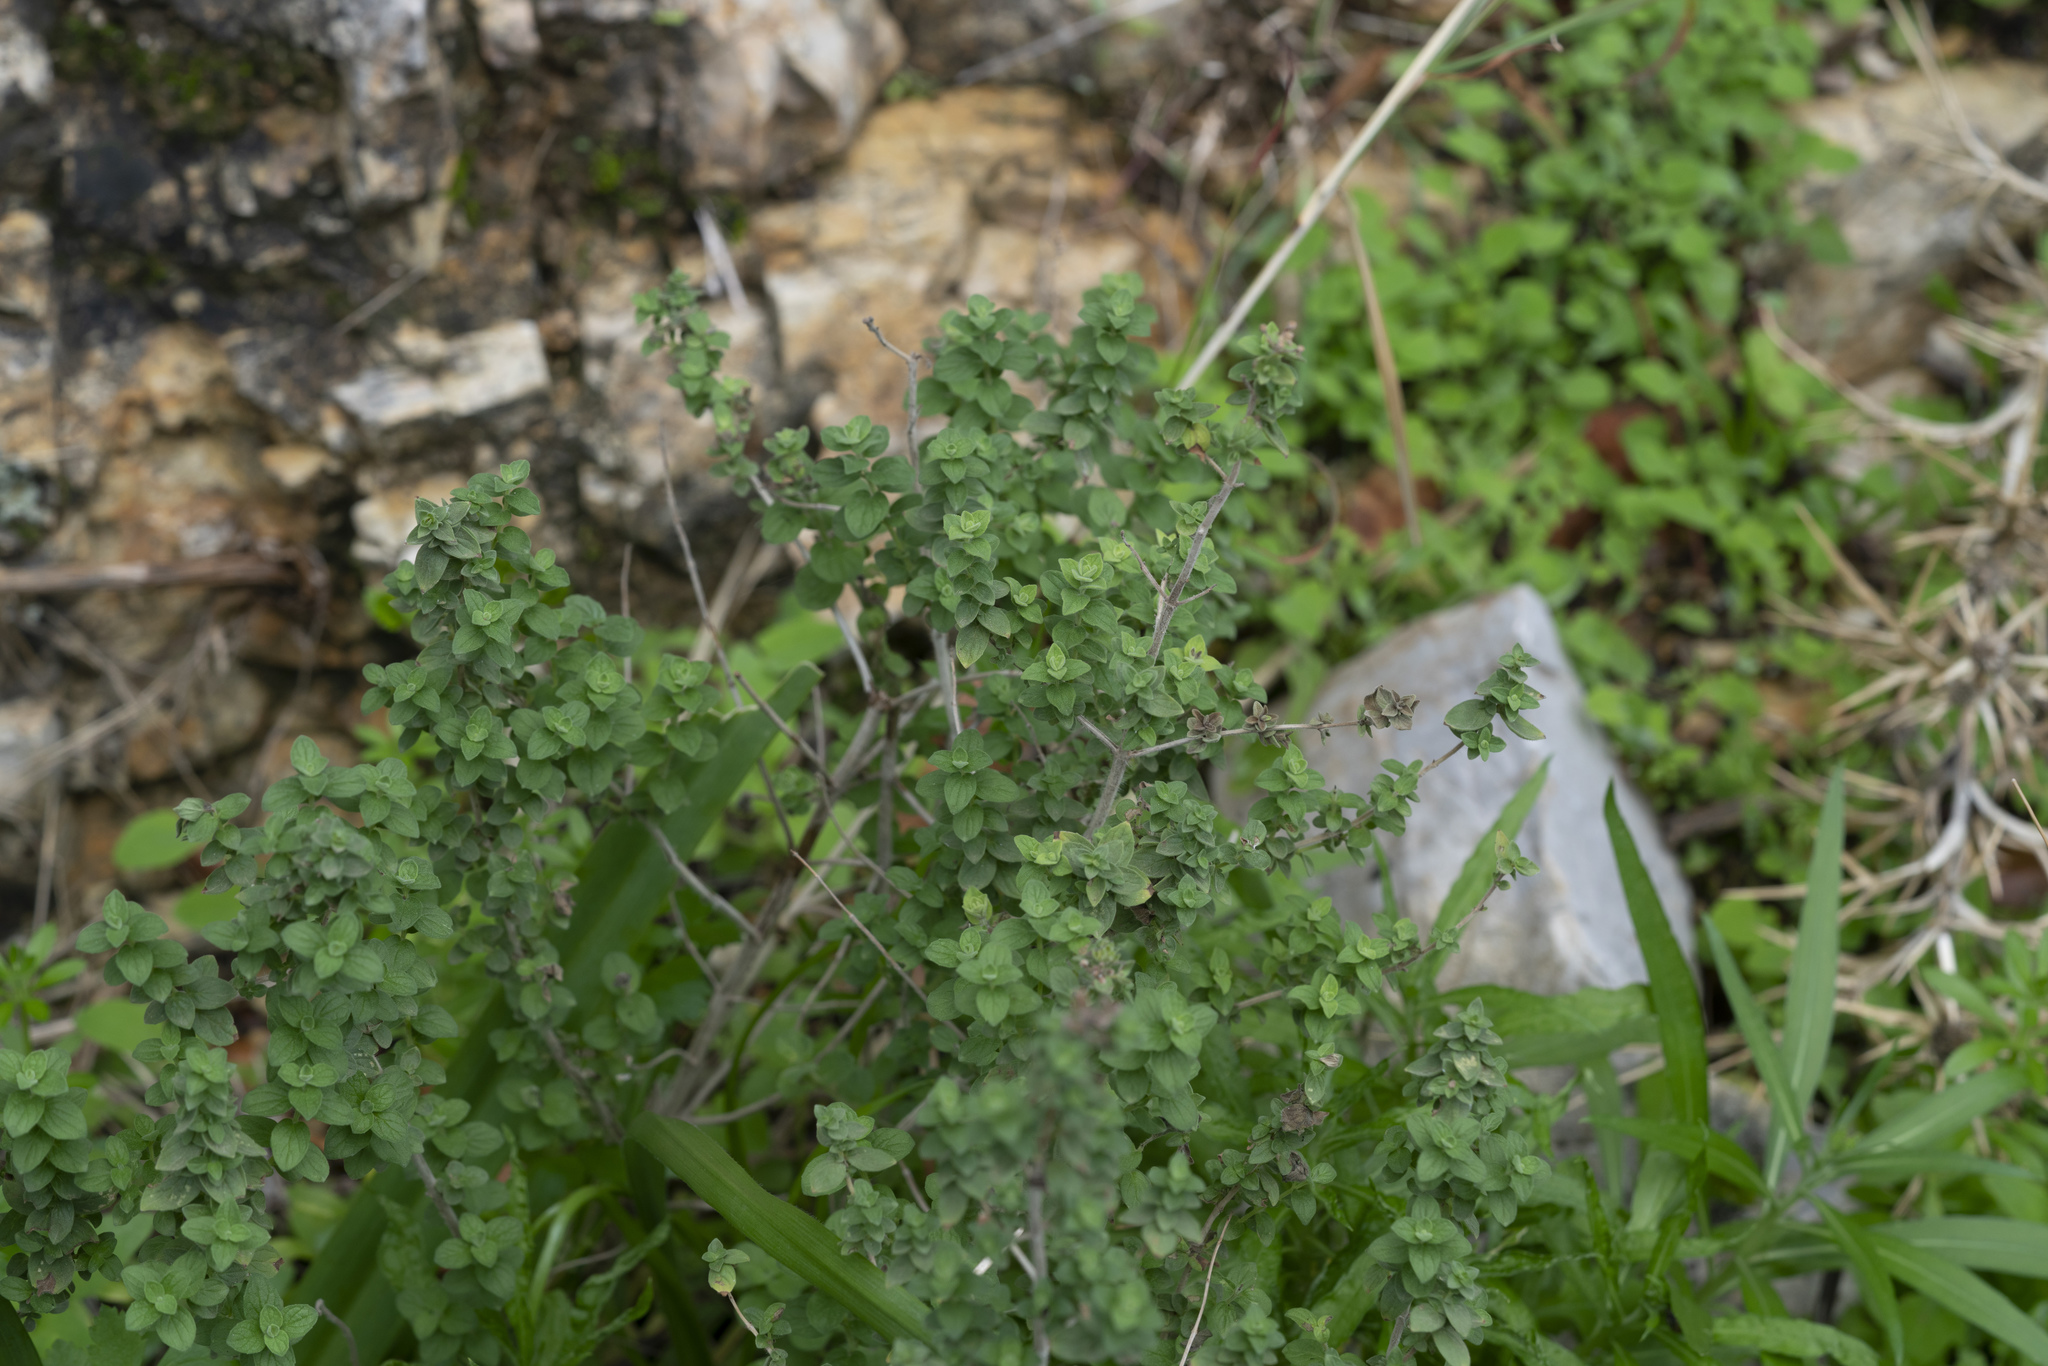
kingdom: Plantae
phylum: Tracheophyta
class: Magnoliopsida
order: Lamiales
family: Lamiaceae
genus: Origanum
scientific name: Origanum onites
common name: Turkish oregano
